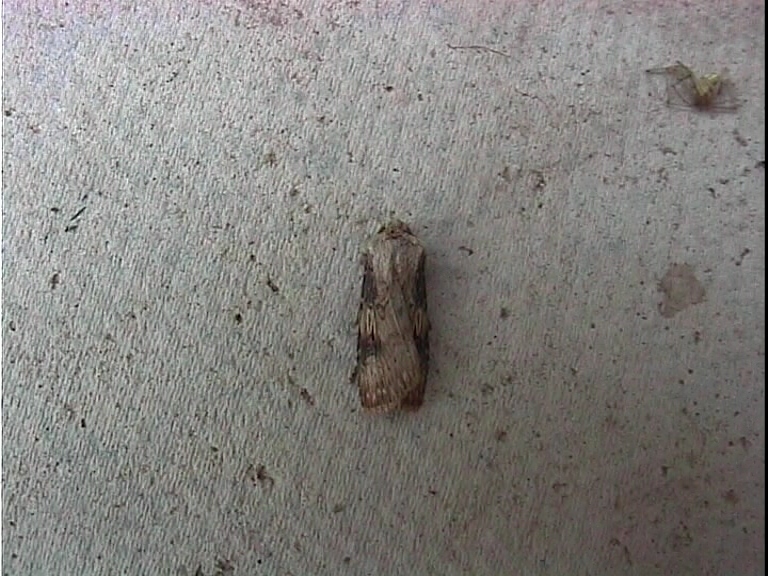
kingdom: Animalia
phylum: Arthropoda
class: Insecta
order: Lepidoptera
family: Noctuidae
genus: Agrotis
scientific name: Agrotis puta
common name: Shuttle-shaped dart
